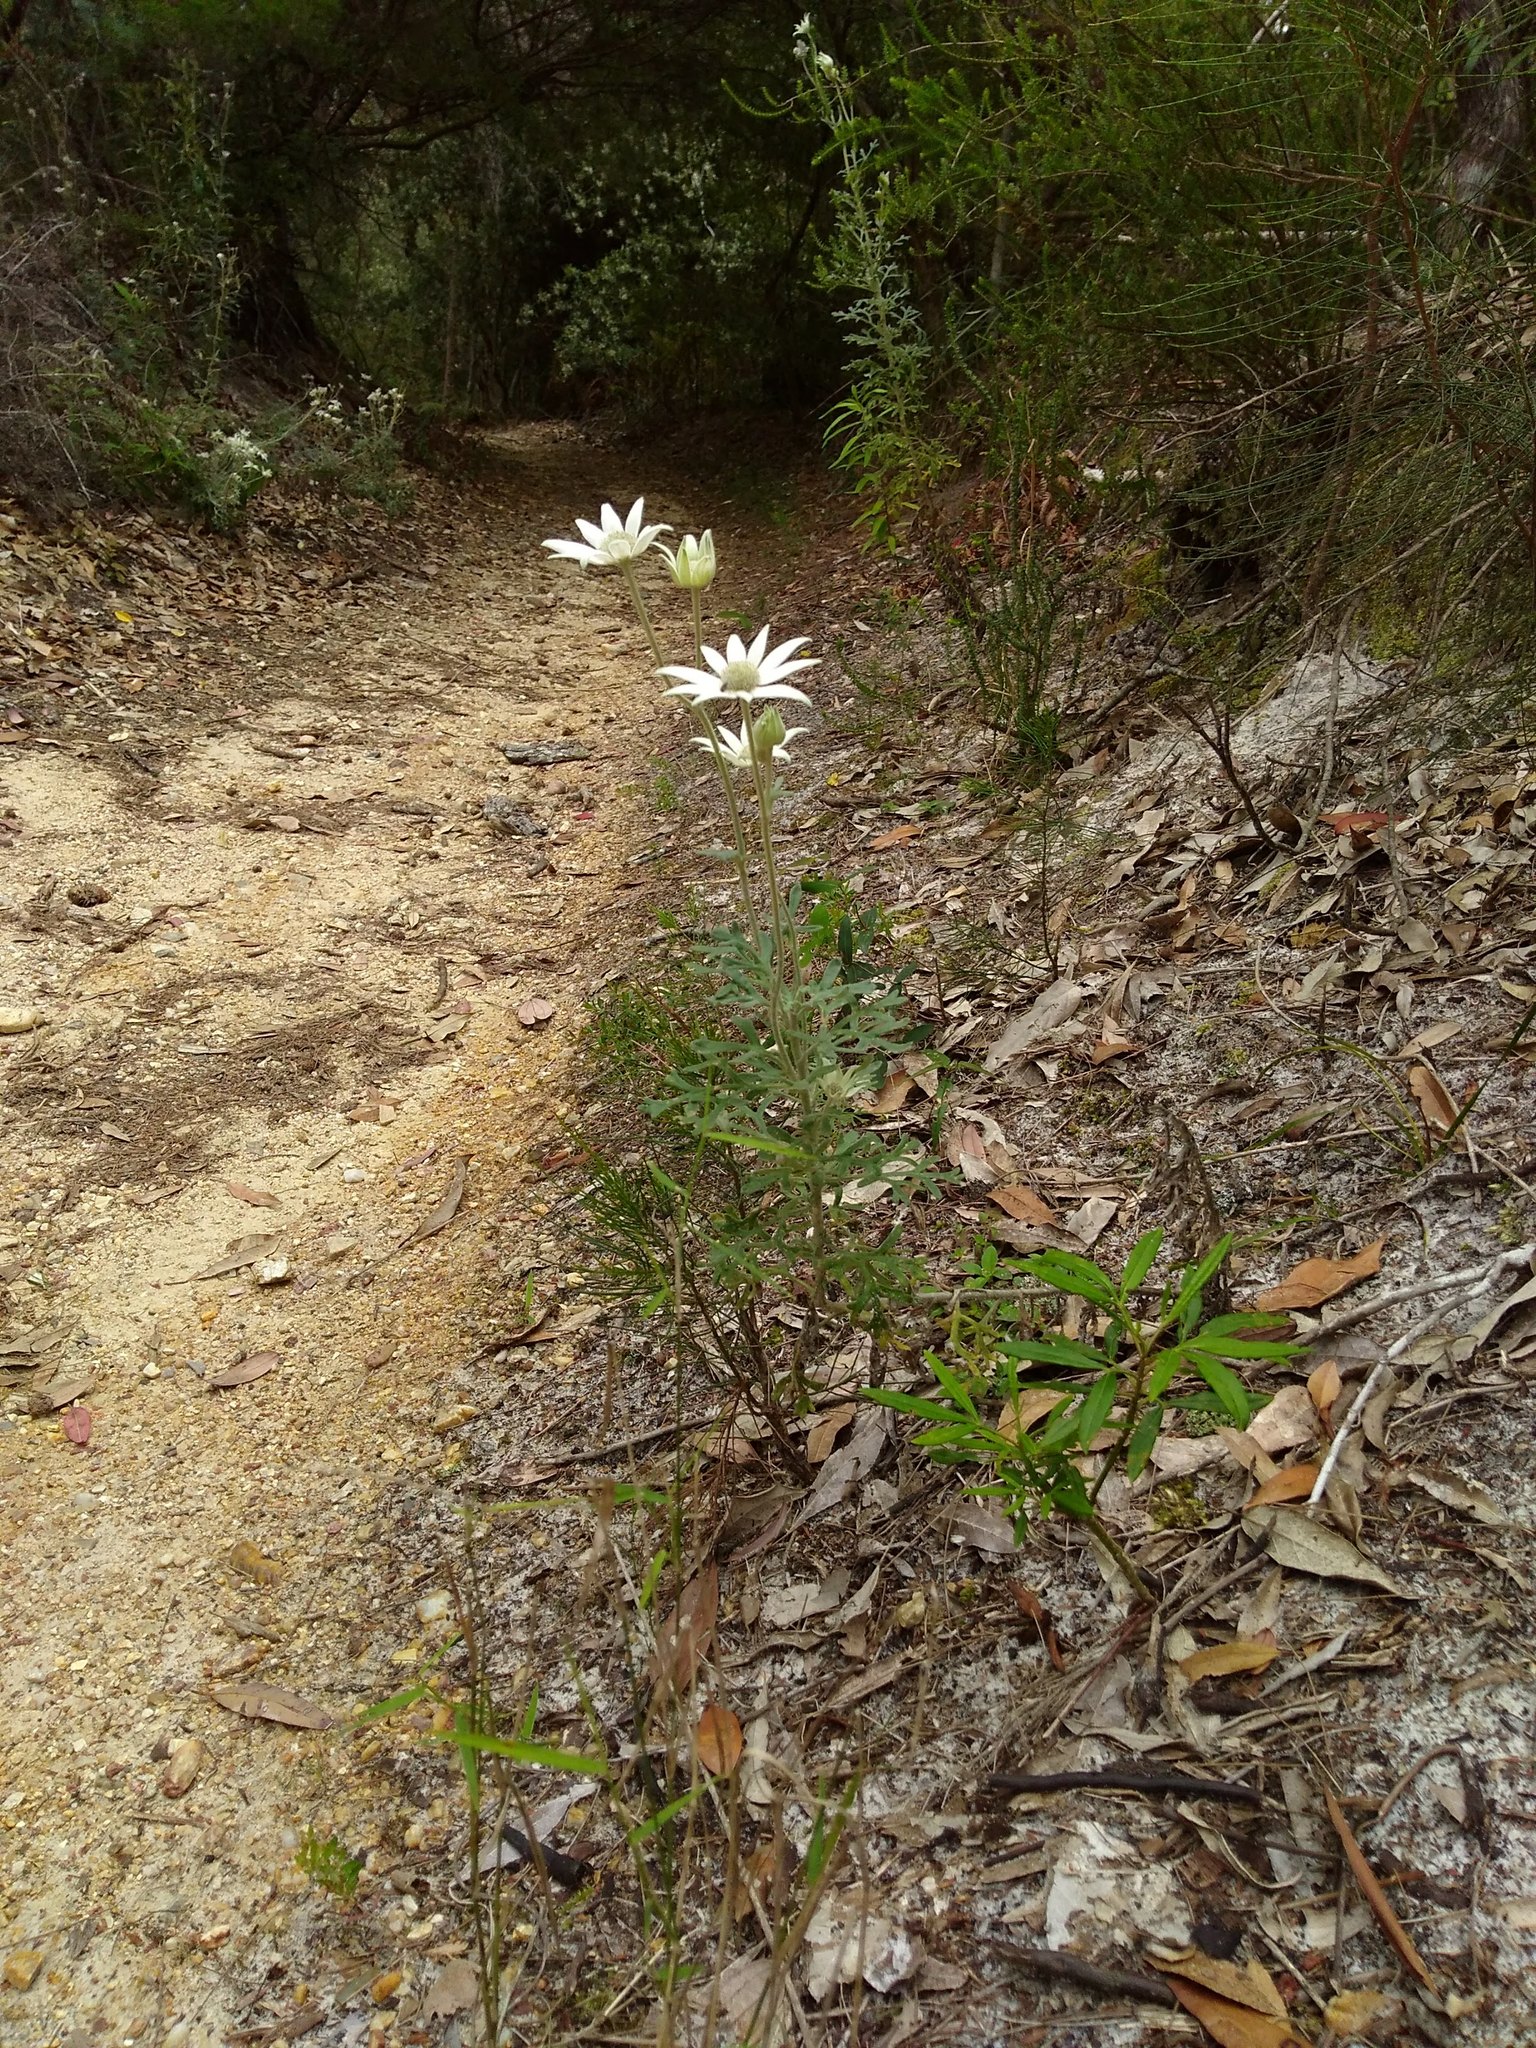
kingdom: Plantae
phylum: Tracheophyta
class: Magnoliopsida
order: Apiales
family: Apiaceae
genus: Actinotus
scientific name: Actinotus helianthi
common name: Flannel-flower
